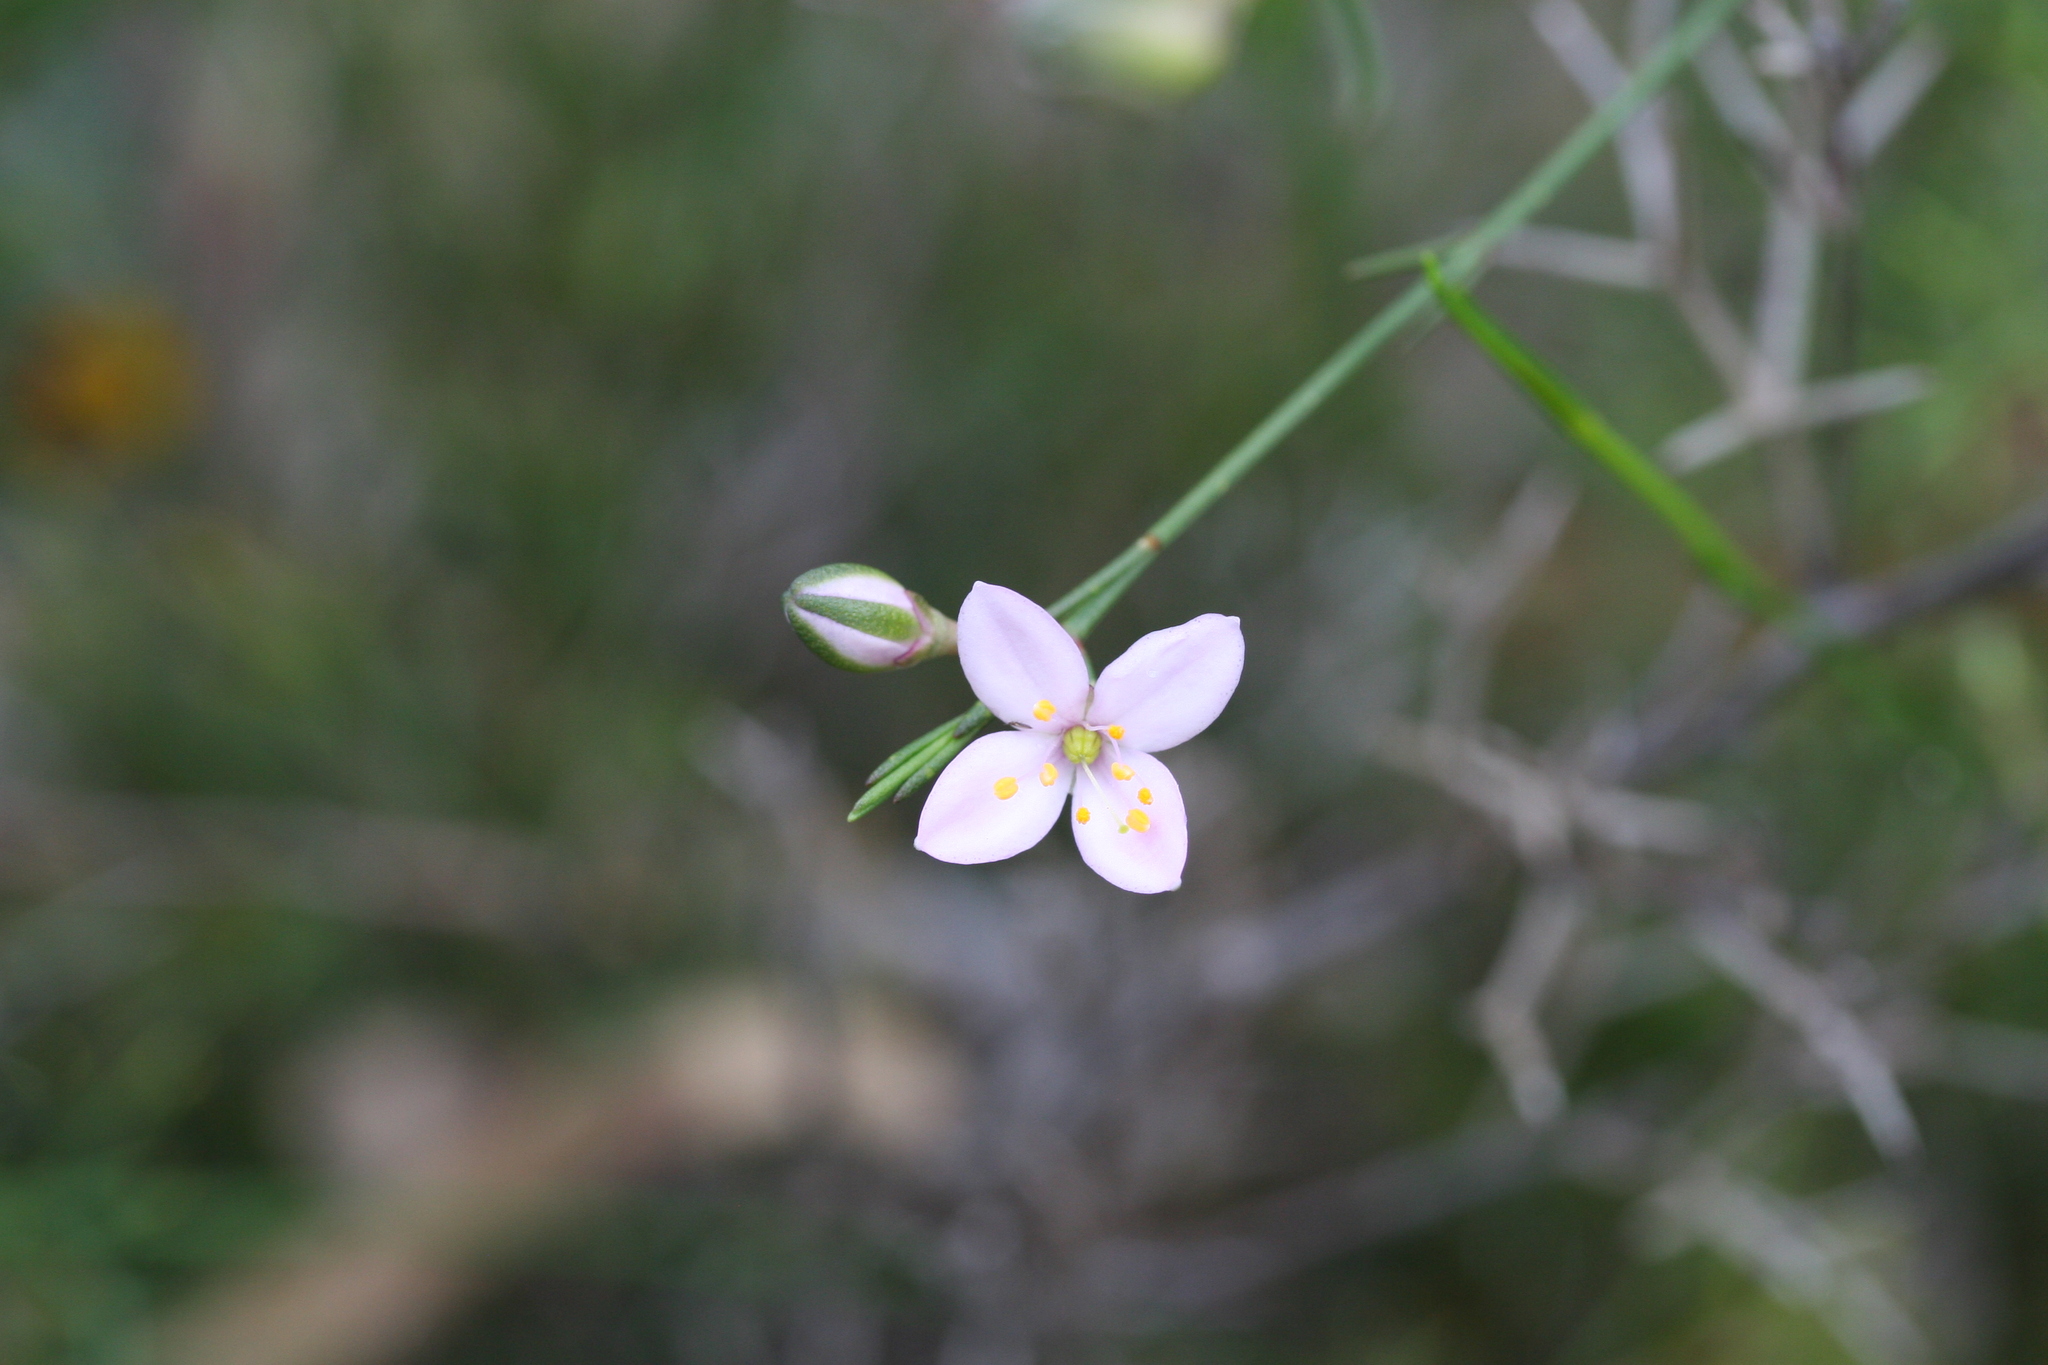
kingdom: Plantae
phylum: Tracheophyta
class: Magnoliopsida
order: Sapindales
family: Rutaceae
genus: Cyanothamnus
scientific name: Cyanothamnus bussellianus
